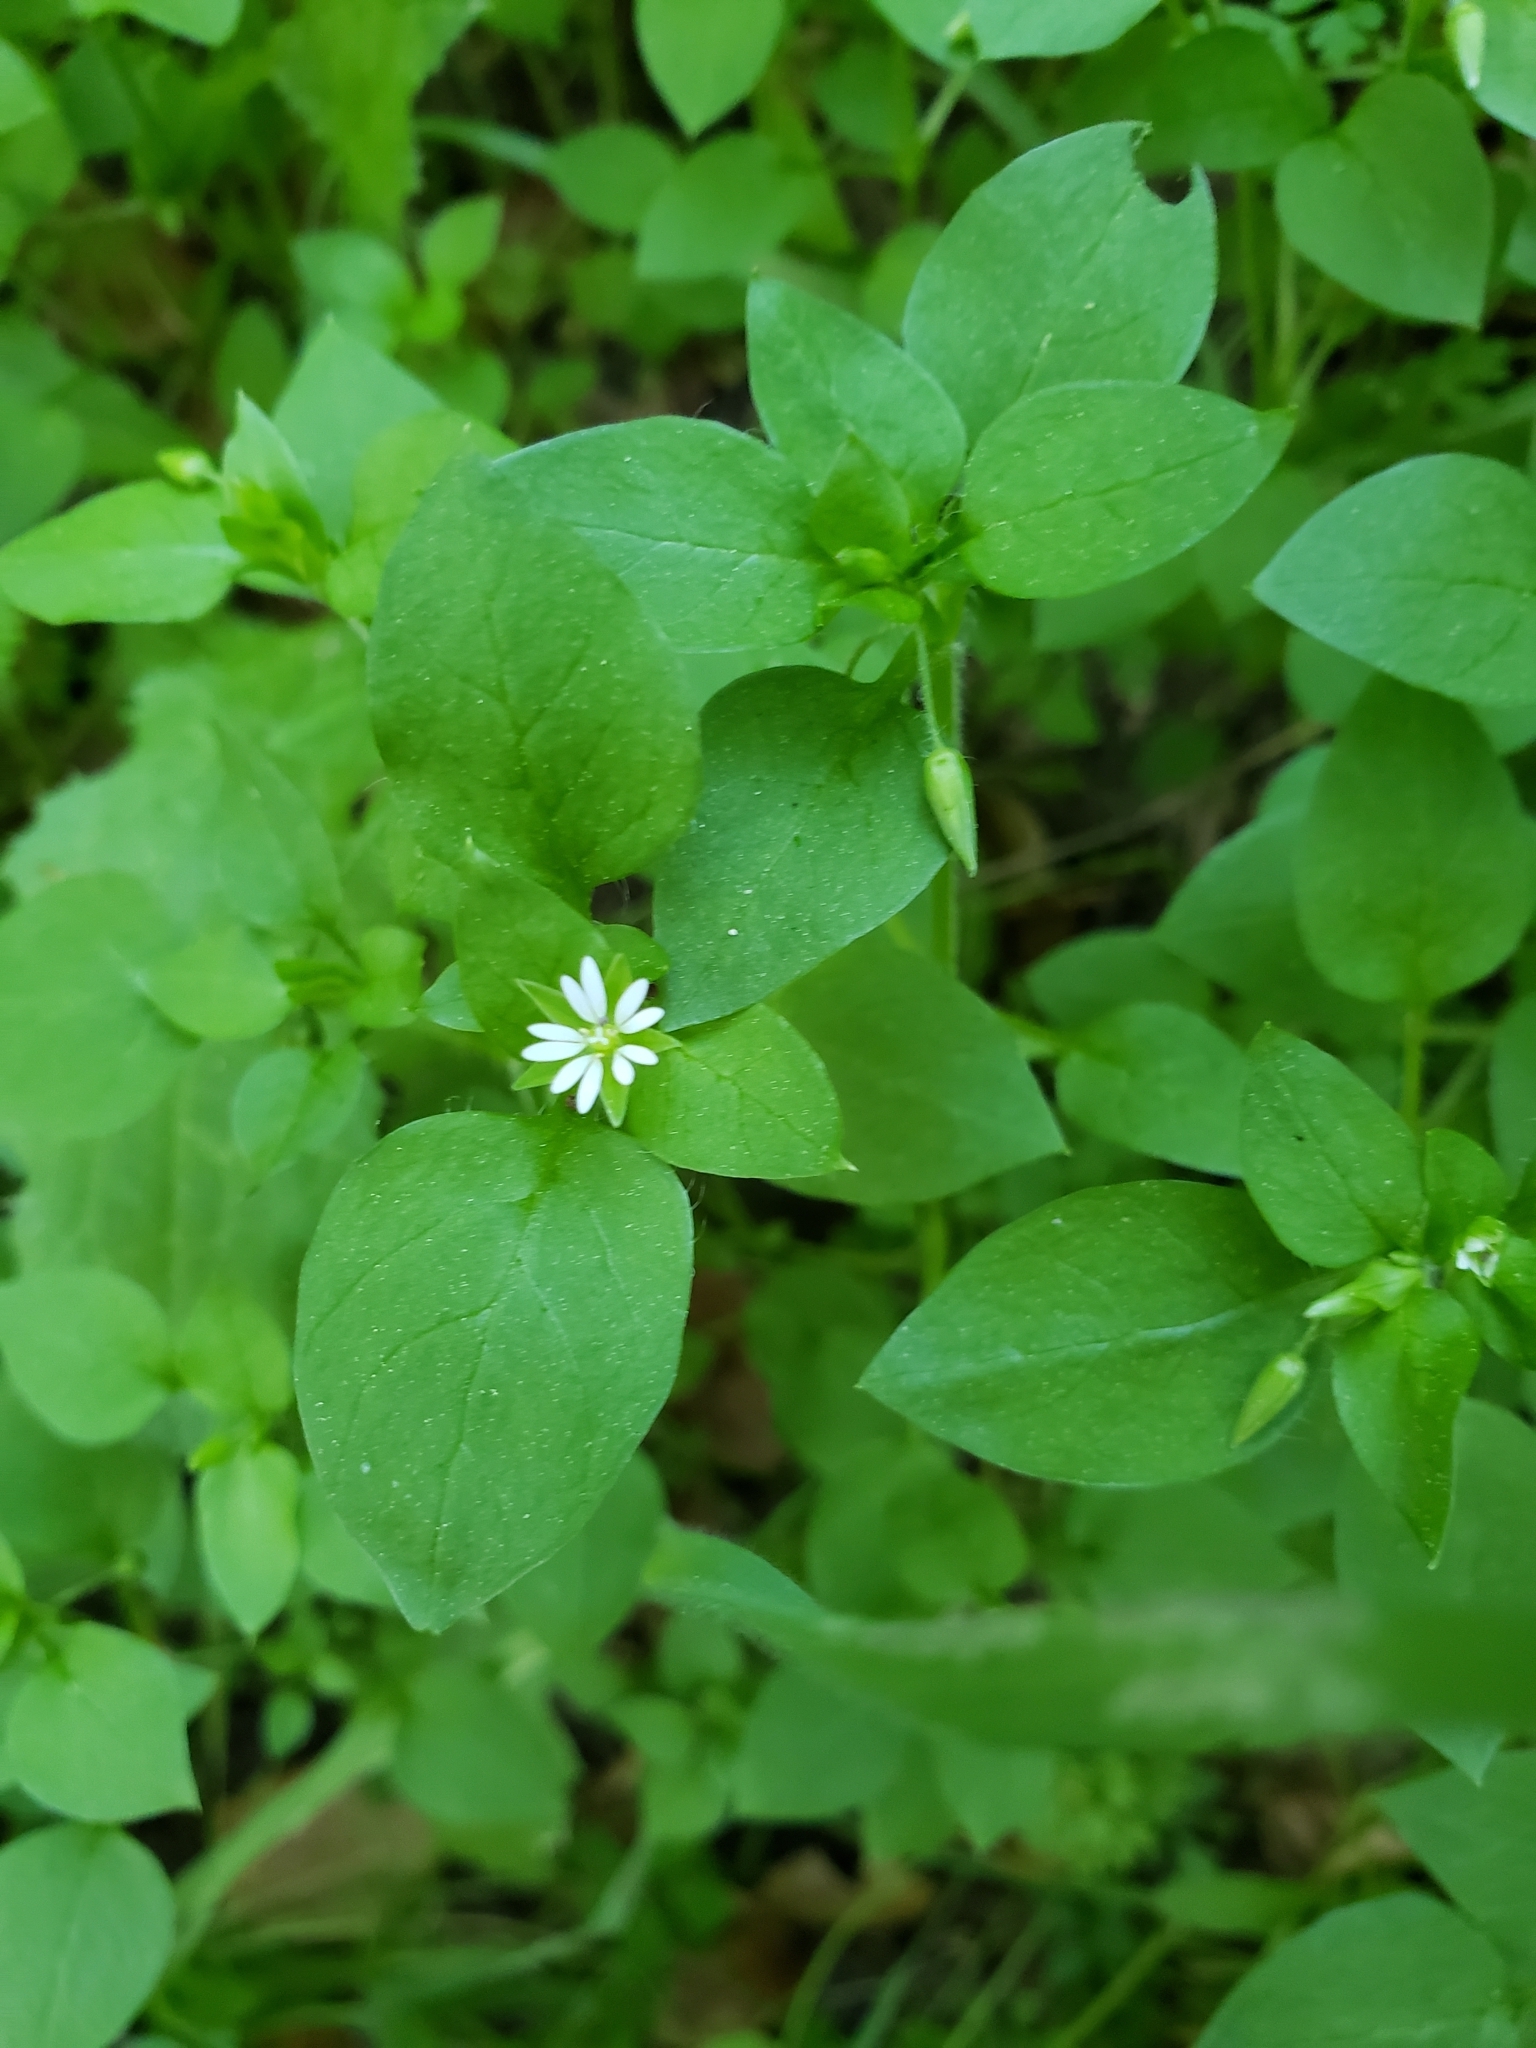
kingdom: Plantae
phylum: Tracheophyta
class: Magnoliopsida
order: Caryophyllales
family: Caryophyllaceae
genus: Stellaria
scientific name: Stellaria media
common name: Common chickweed
